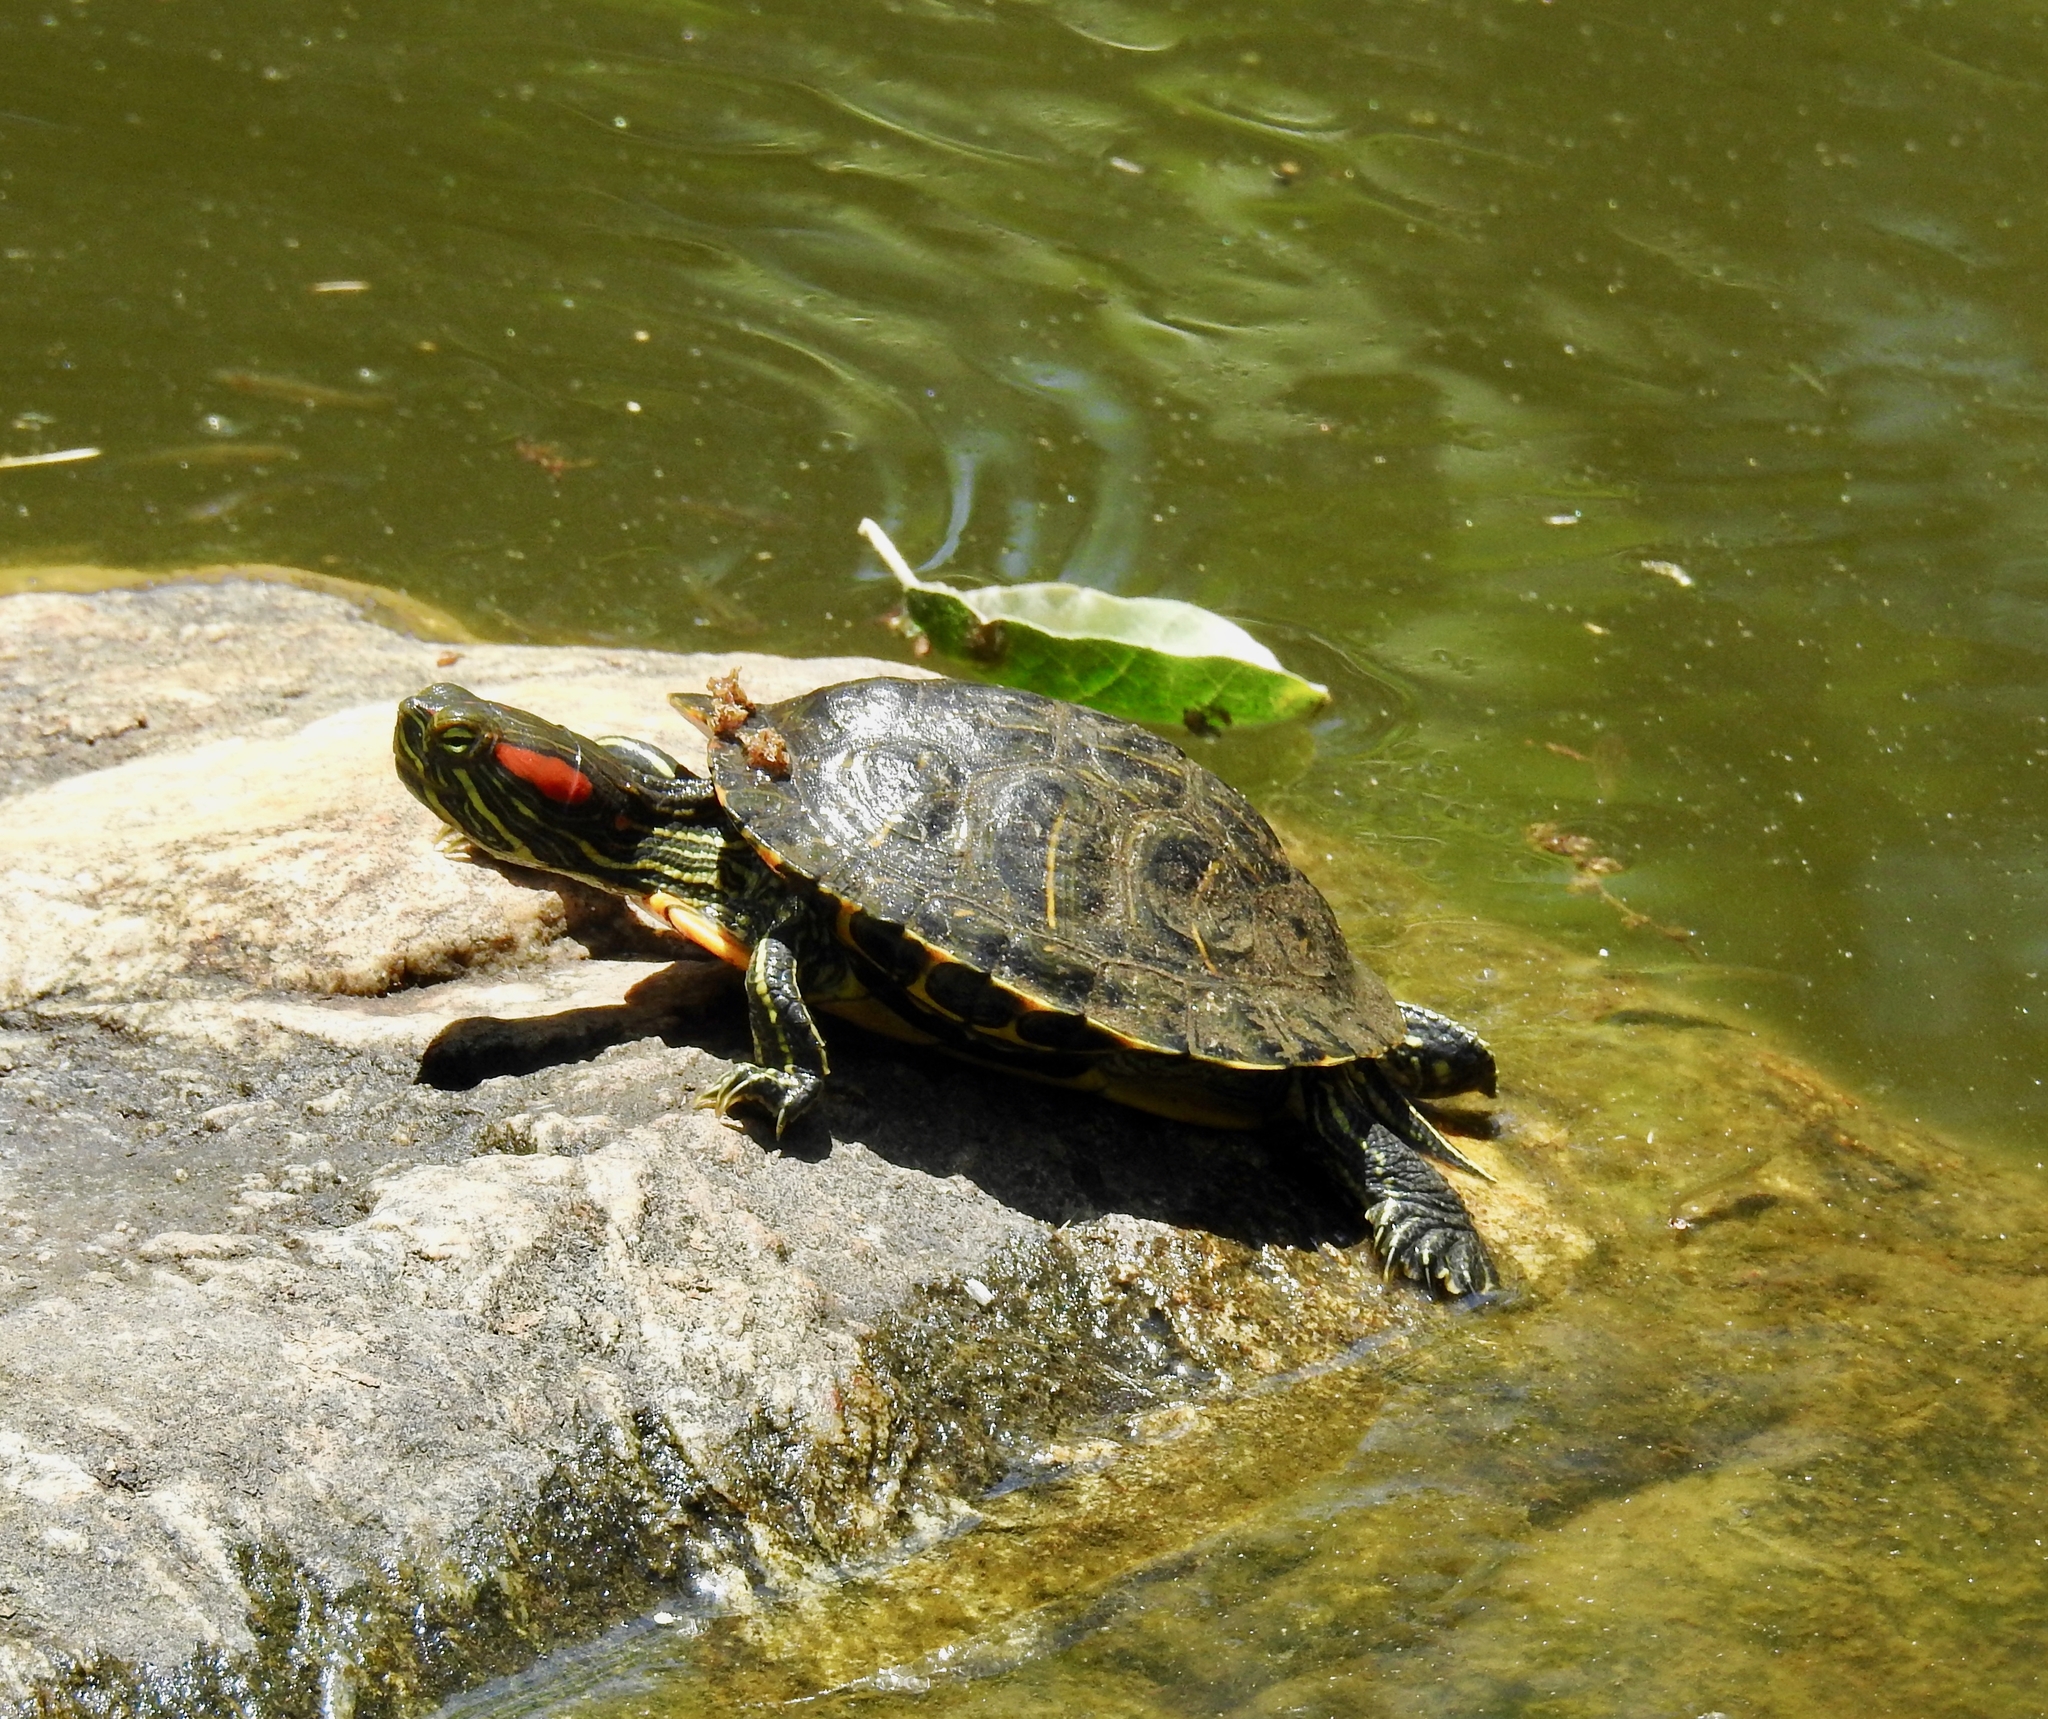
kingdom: Animalia
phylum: Chordata
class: Testudines
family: Emydidae
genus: Trachemys
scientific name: Trachemys scripta
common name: Slider
